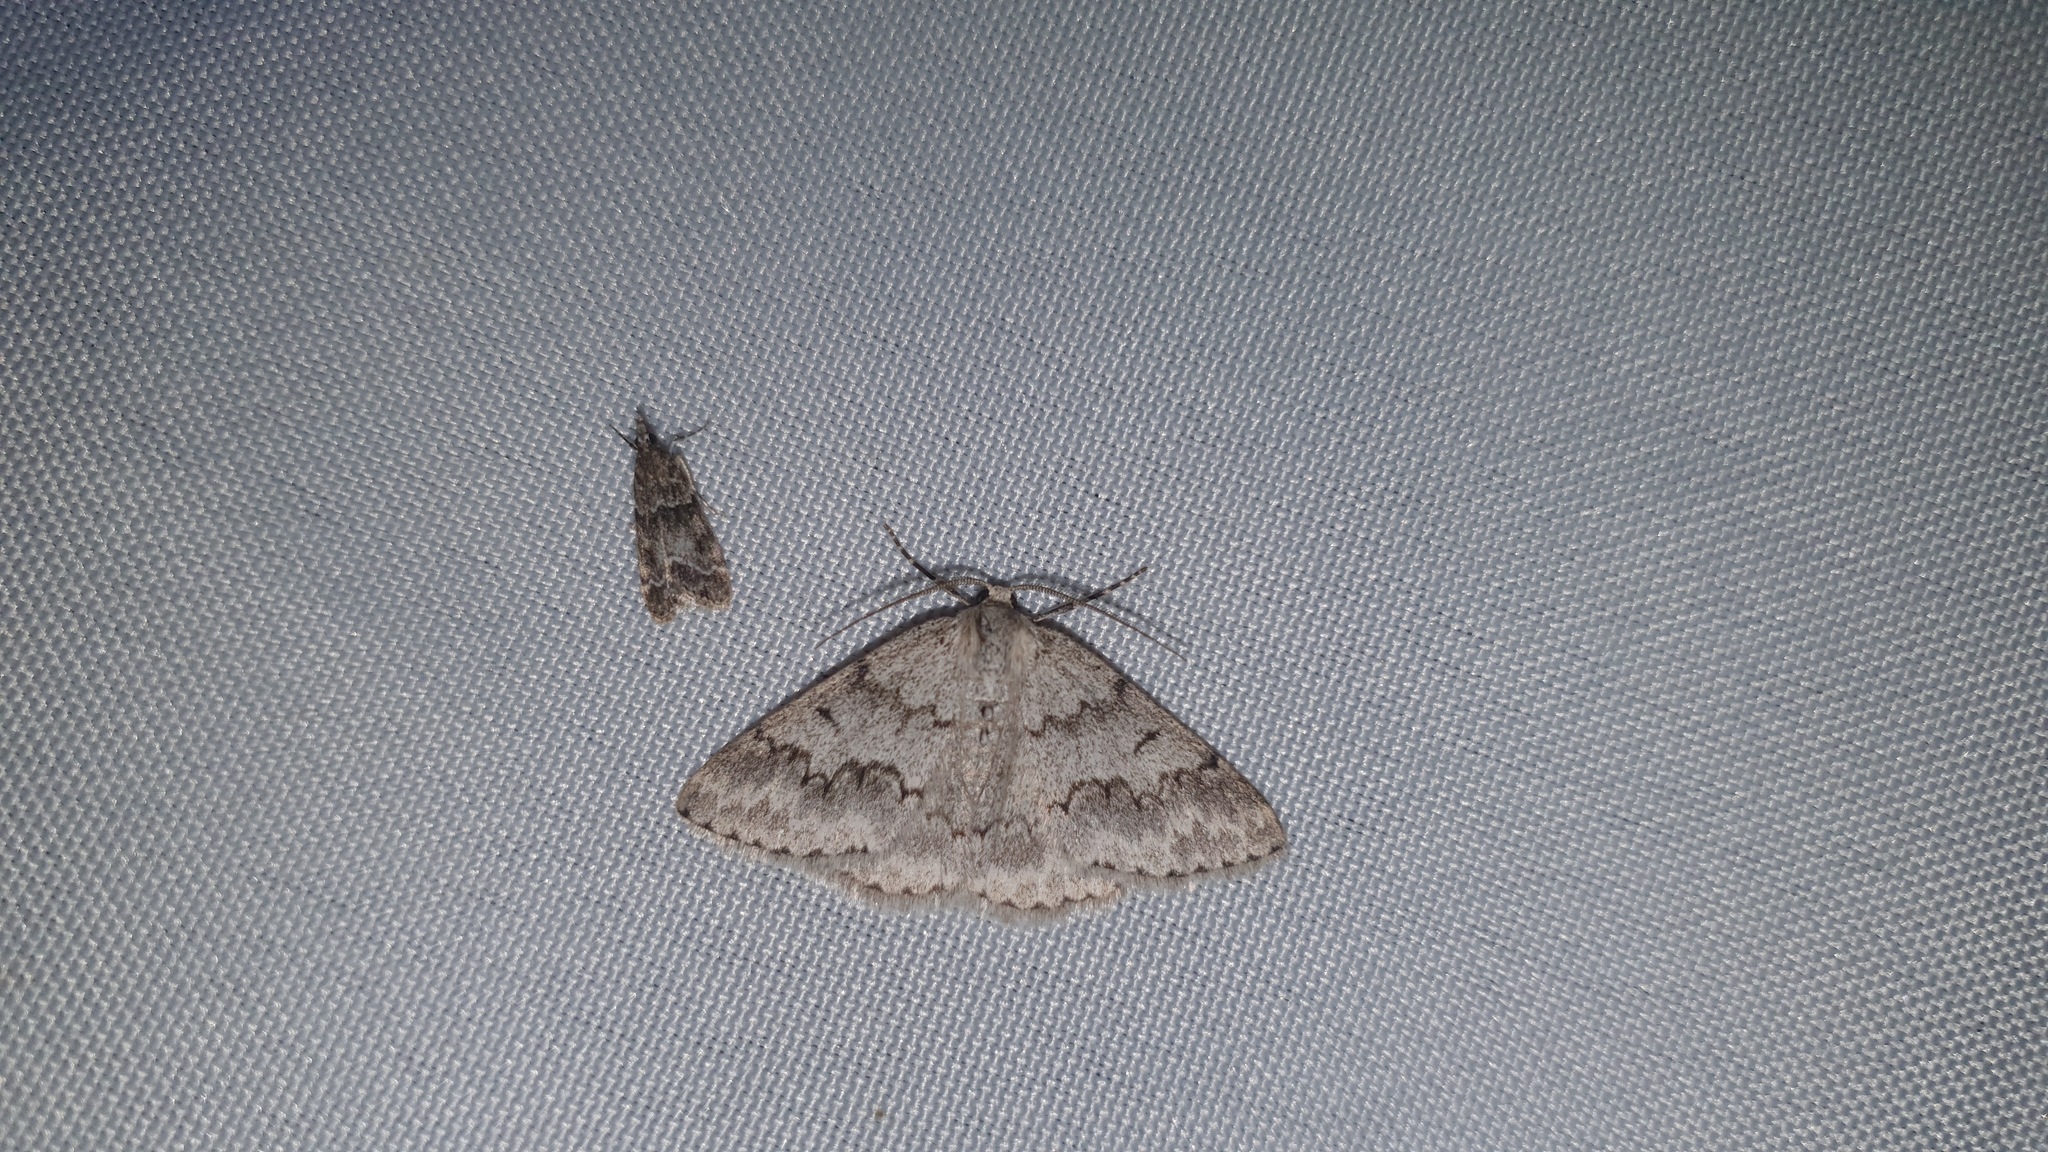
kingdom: Animalia
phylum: Arthropoda
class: Insecta
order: Lepidoptera
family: Geometridae
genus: Pseudoterpna
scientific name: Pseudoterpna coronillaria
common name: Jersey emerald
